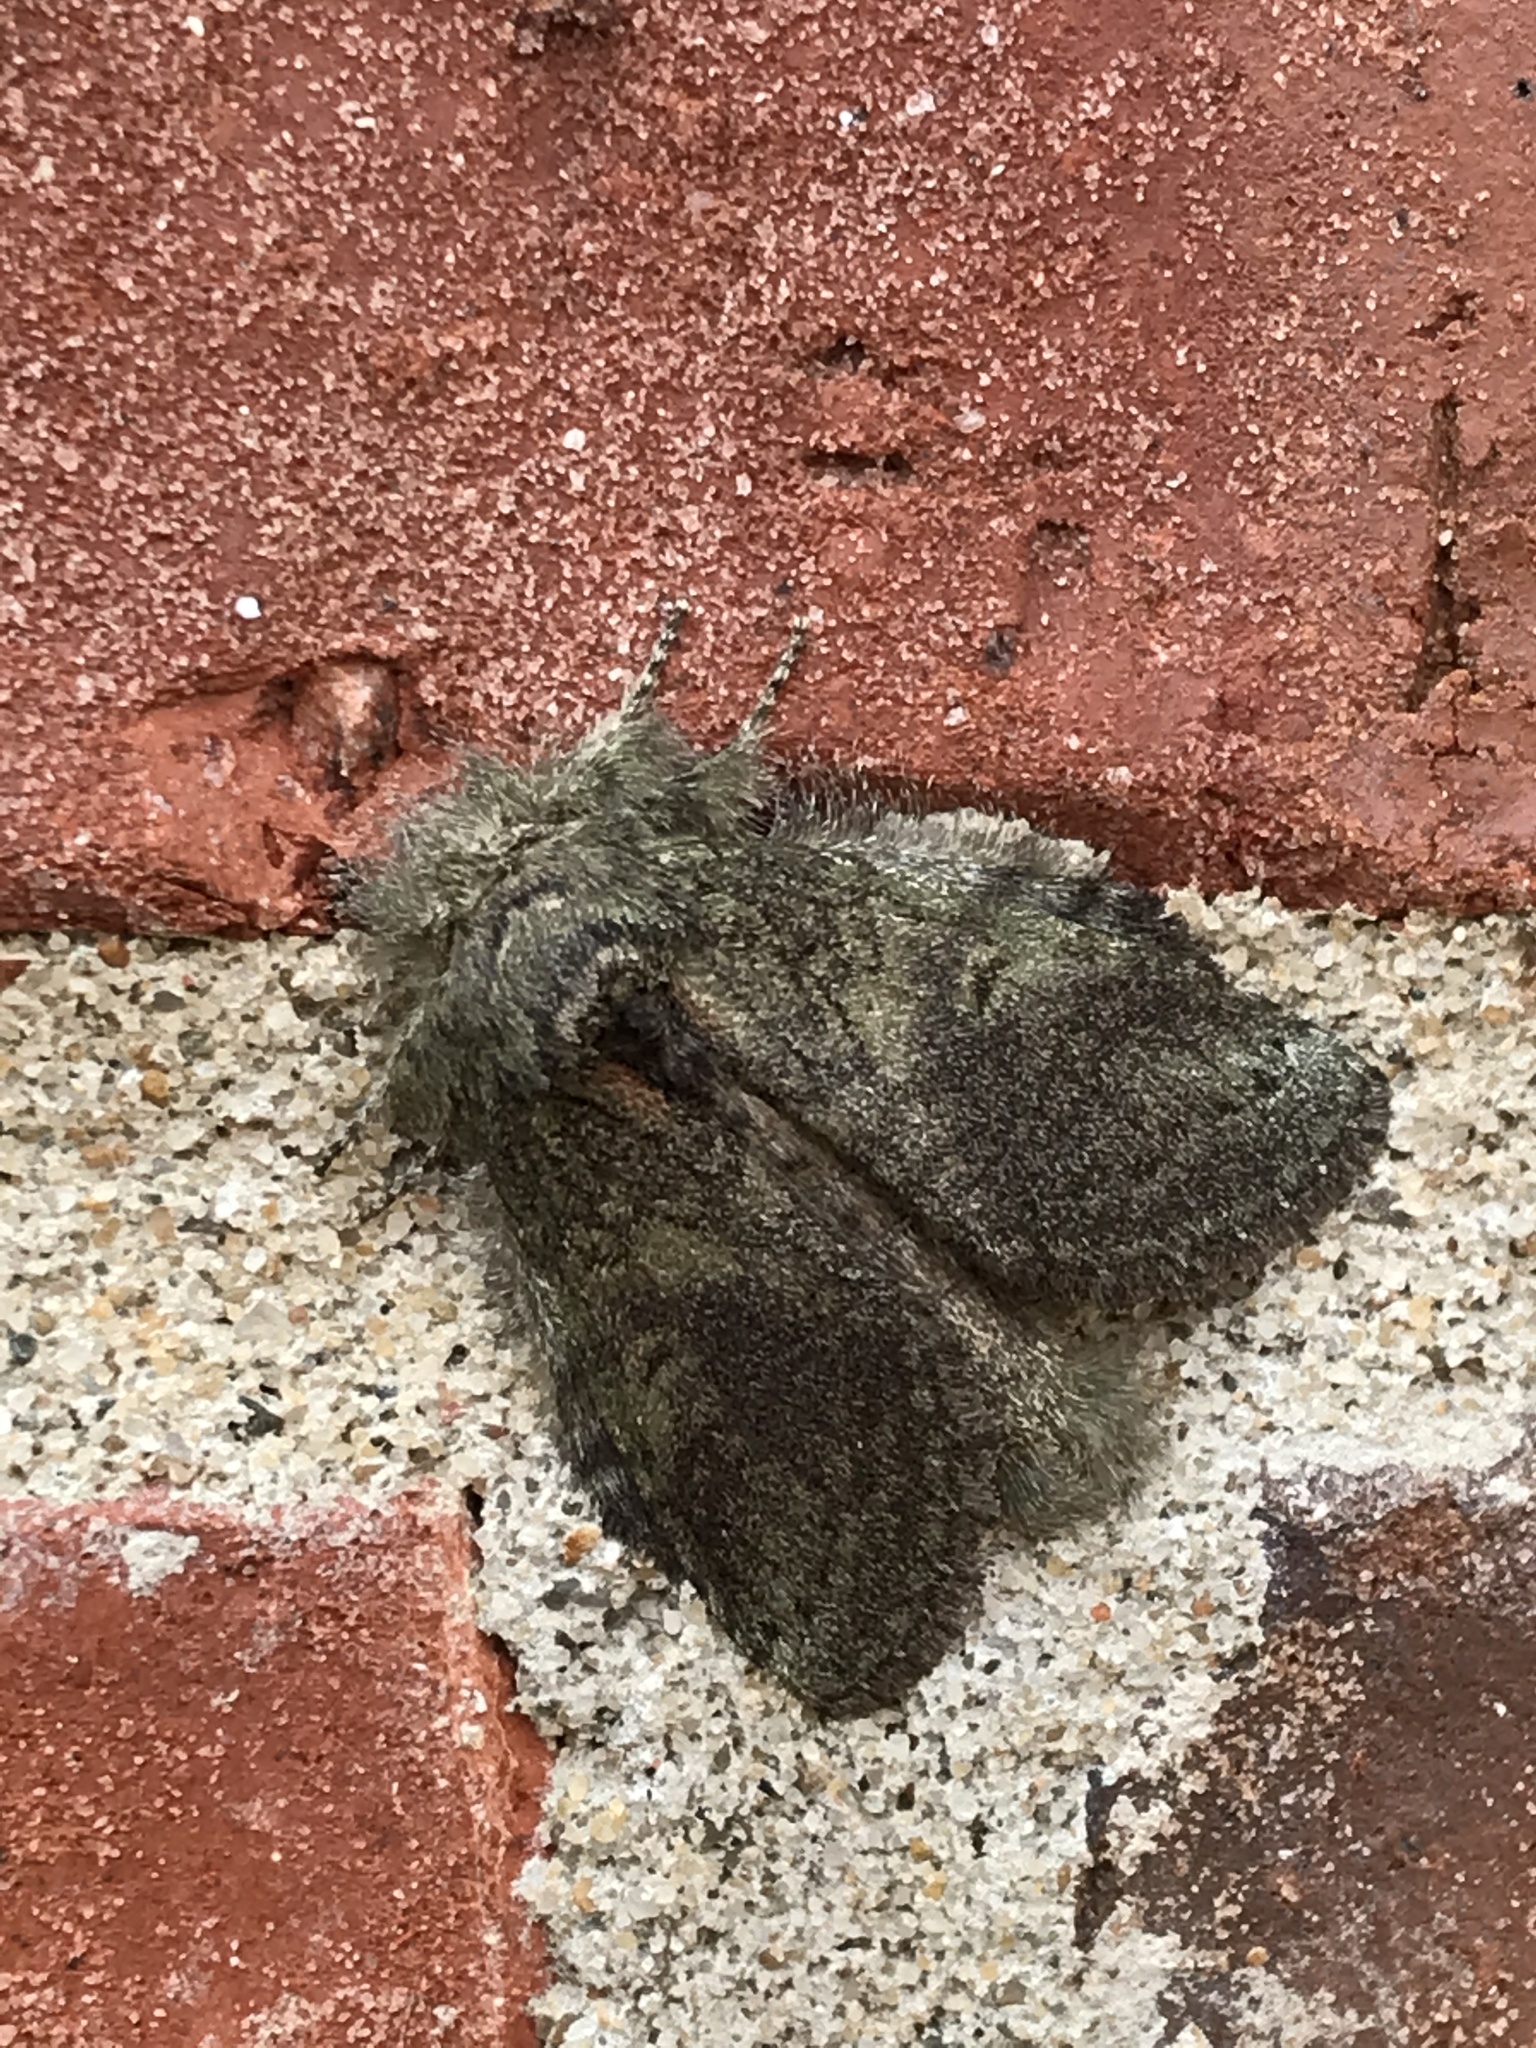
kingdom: Animalia
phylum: Arthropoda
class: Insecta
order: Lepidoptera
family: Notodontidae
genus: Disphragis
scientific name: Disphragis Cecrita guttivitta
